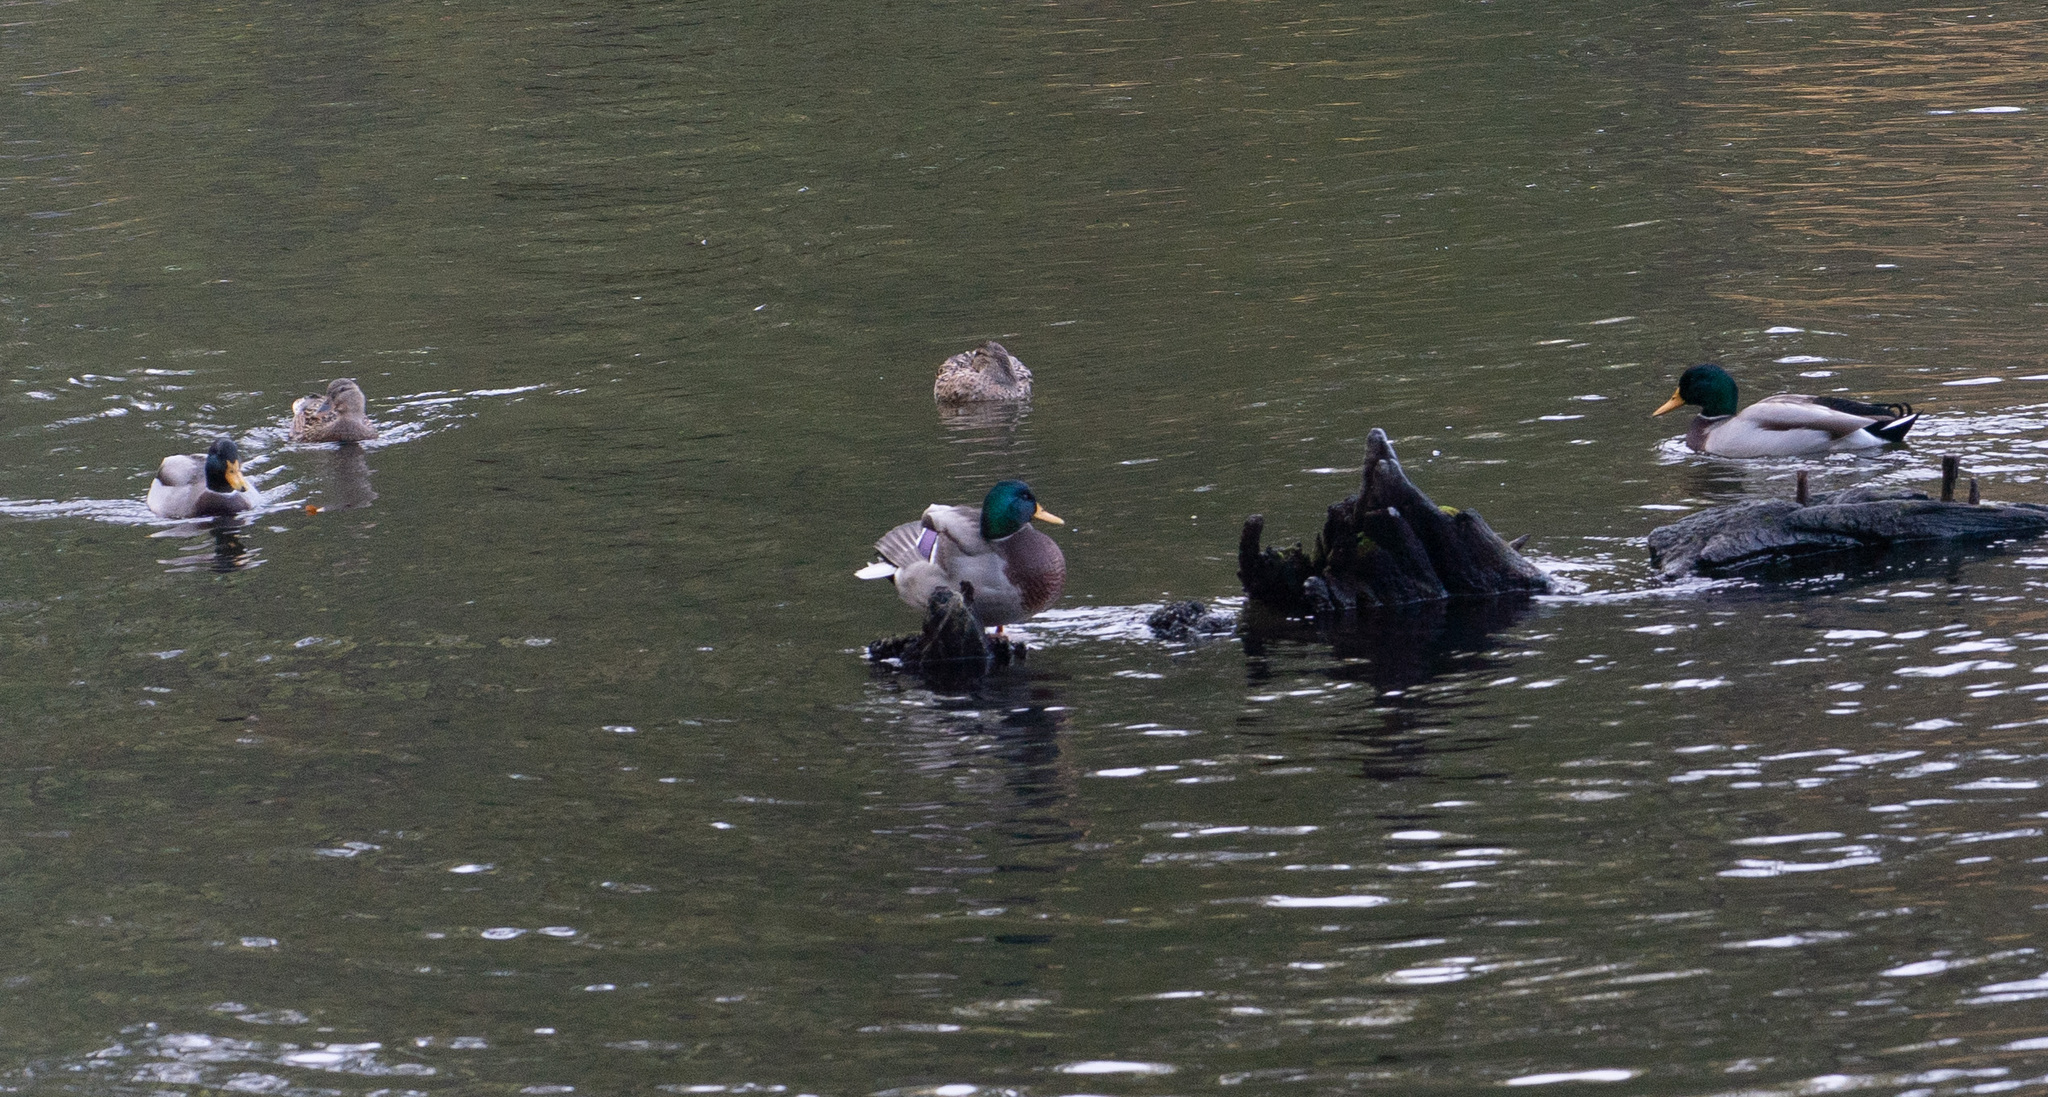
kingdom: Animalia
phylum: Chordata
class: Aves
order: Anseriformes
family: Anatidae
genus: Anas
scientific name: Anas platyrhynchos
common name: Mallard
